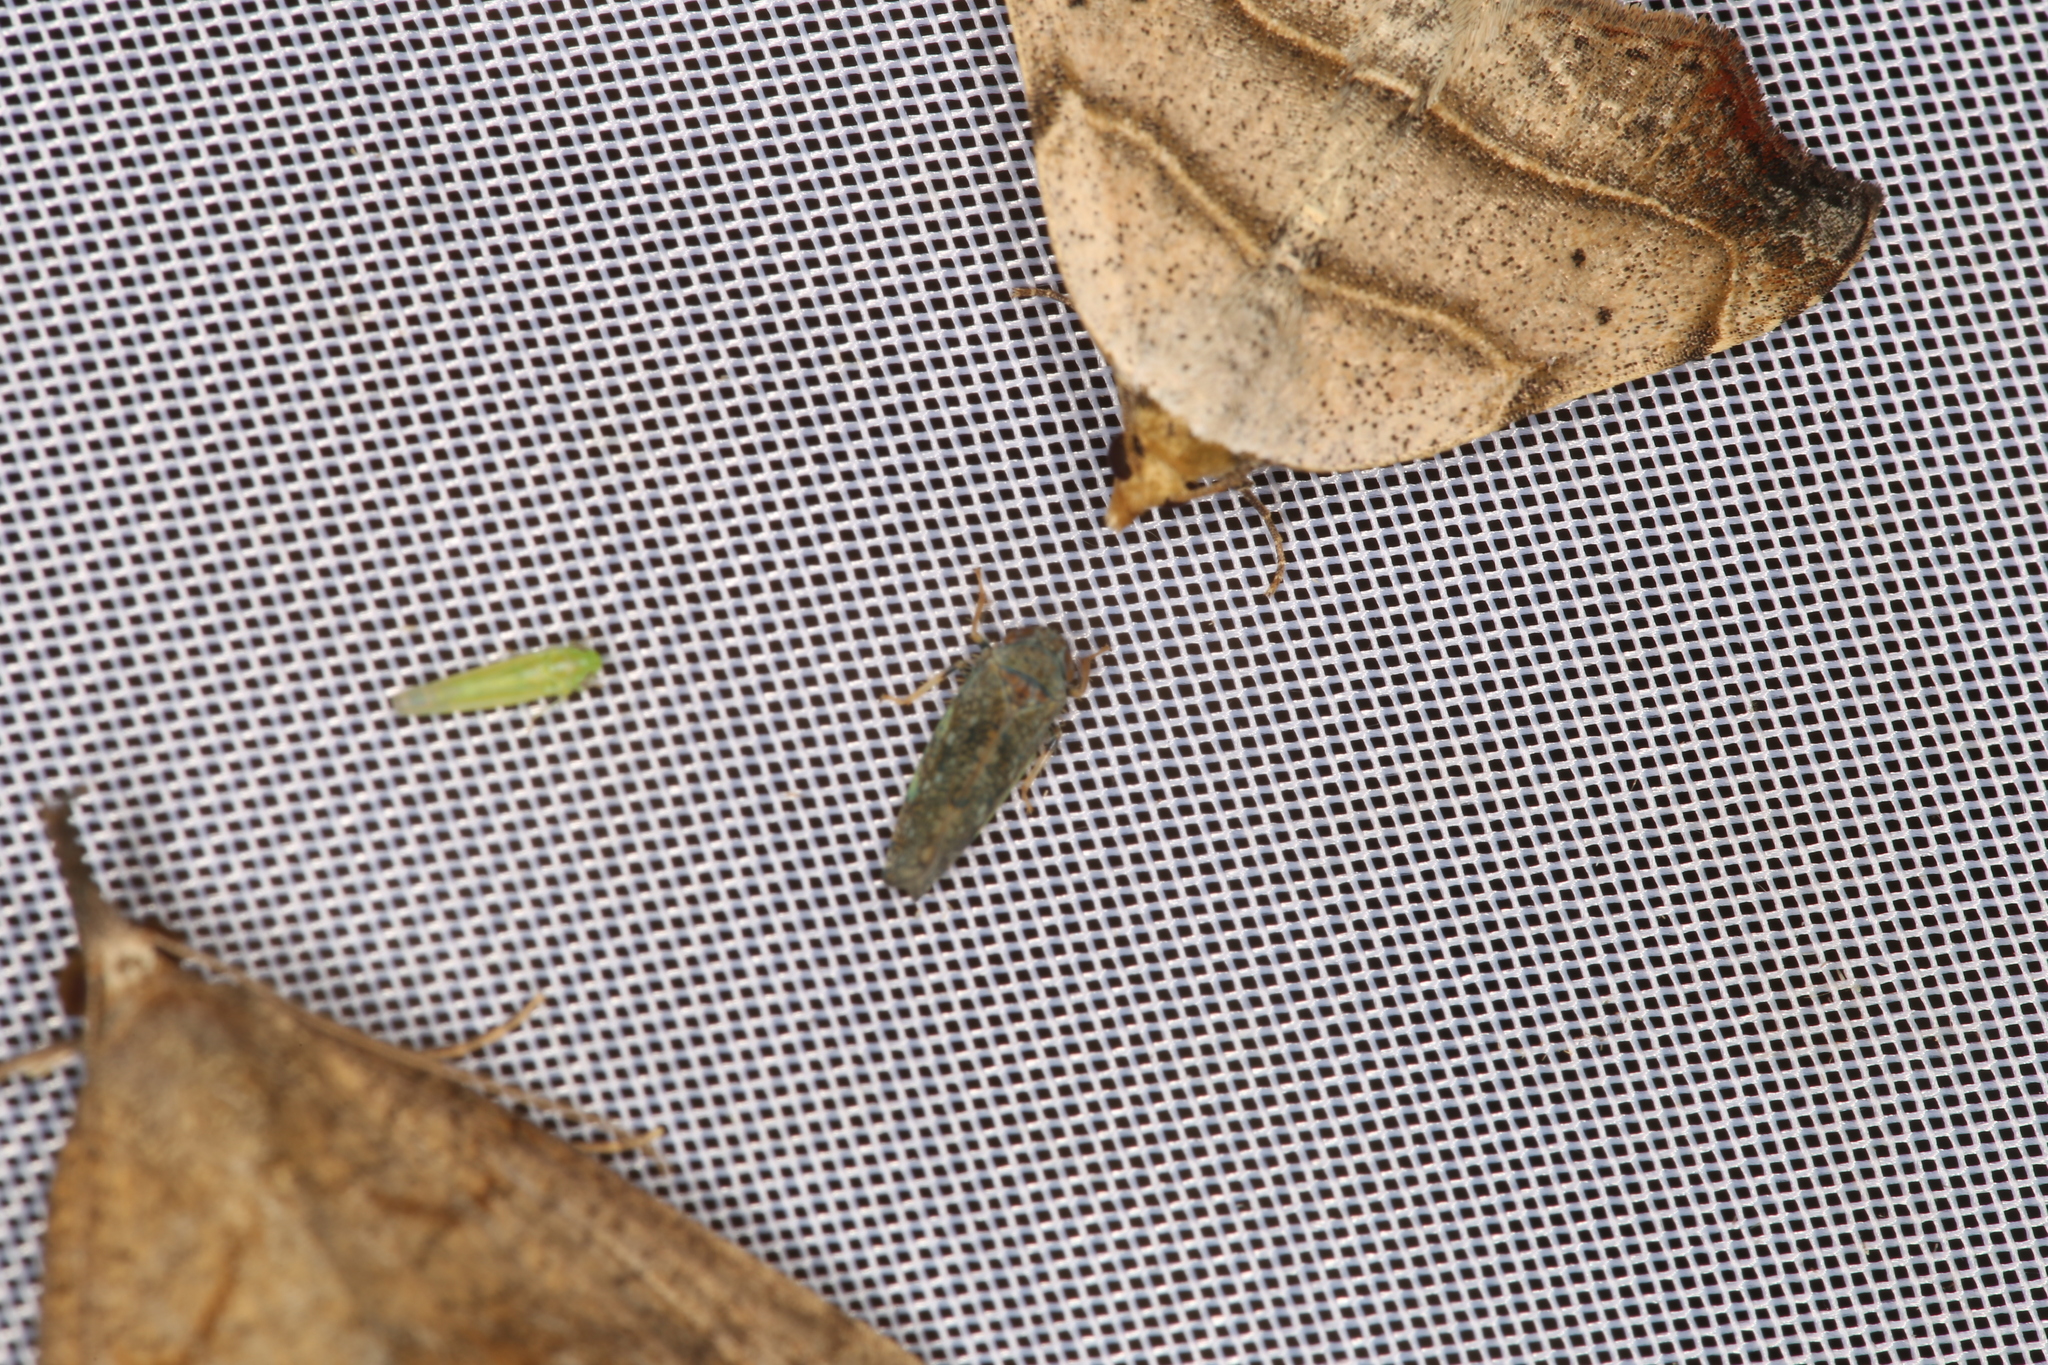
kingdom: Animalia
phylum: Arthropoda
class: Insecta
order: Hemiptera
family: Cicadellidae
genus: Orientus
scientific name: Orientus ishidae
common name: Japanese leafhopper
